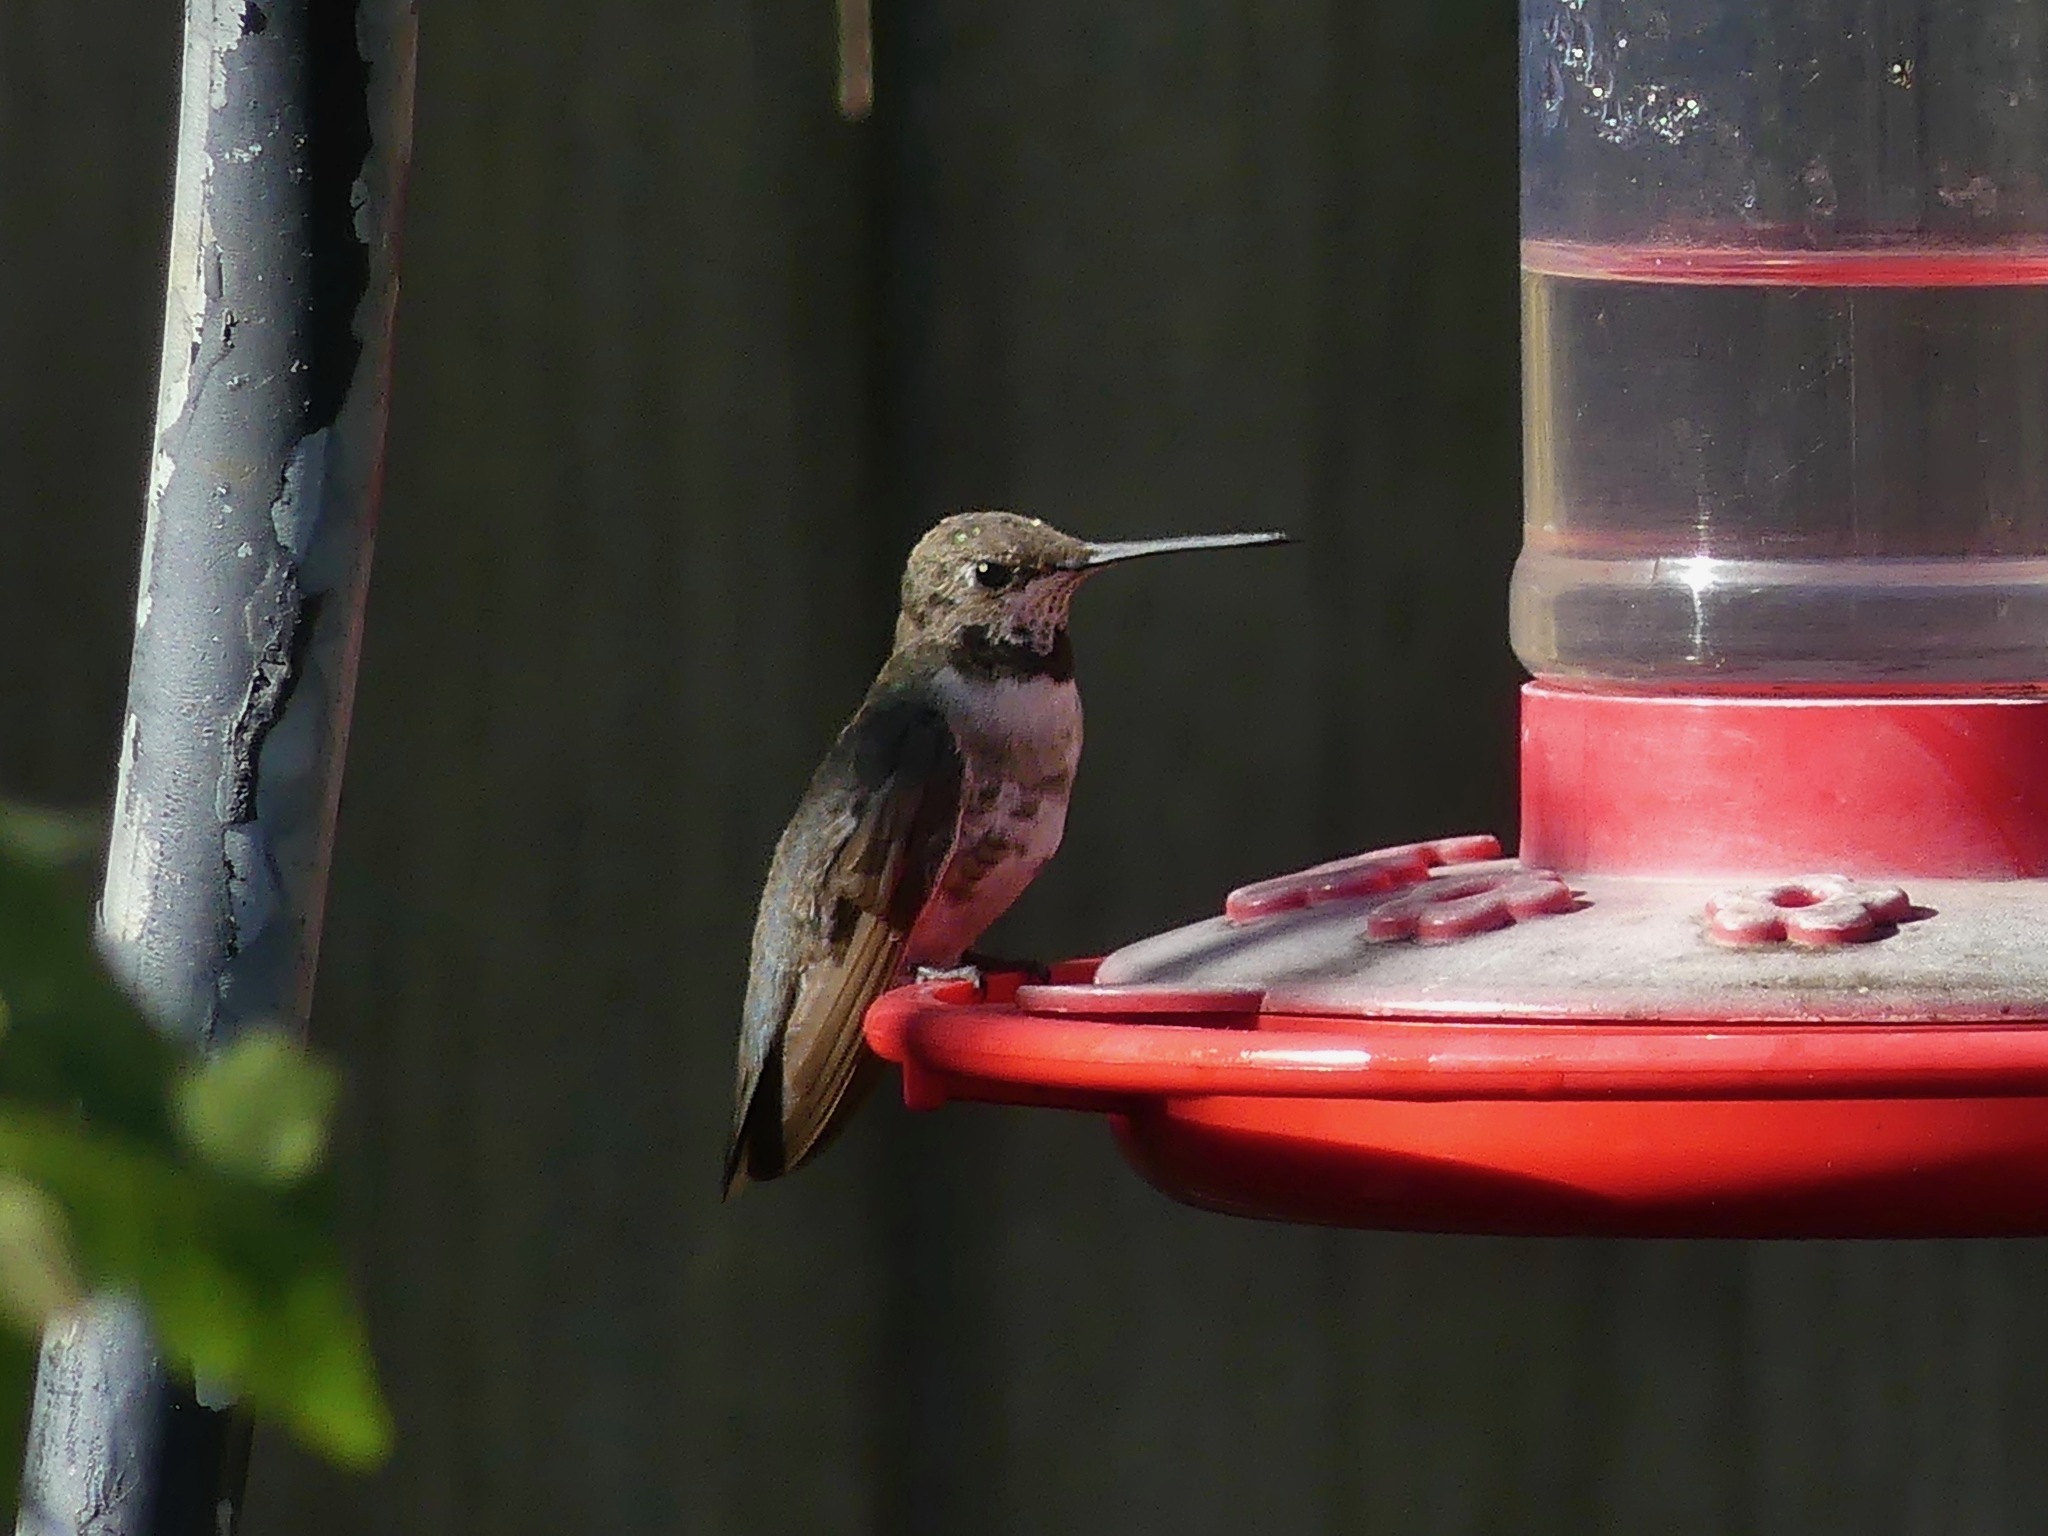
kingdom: Animalia
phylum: Chordata
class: Aves
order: Apodiformes
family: Trochilidae
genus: Archilochus
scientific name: Archilochus alexandri
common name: Black-chinned hummingbird
